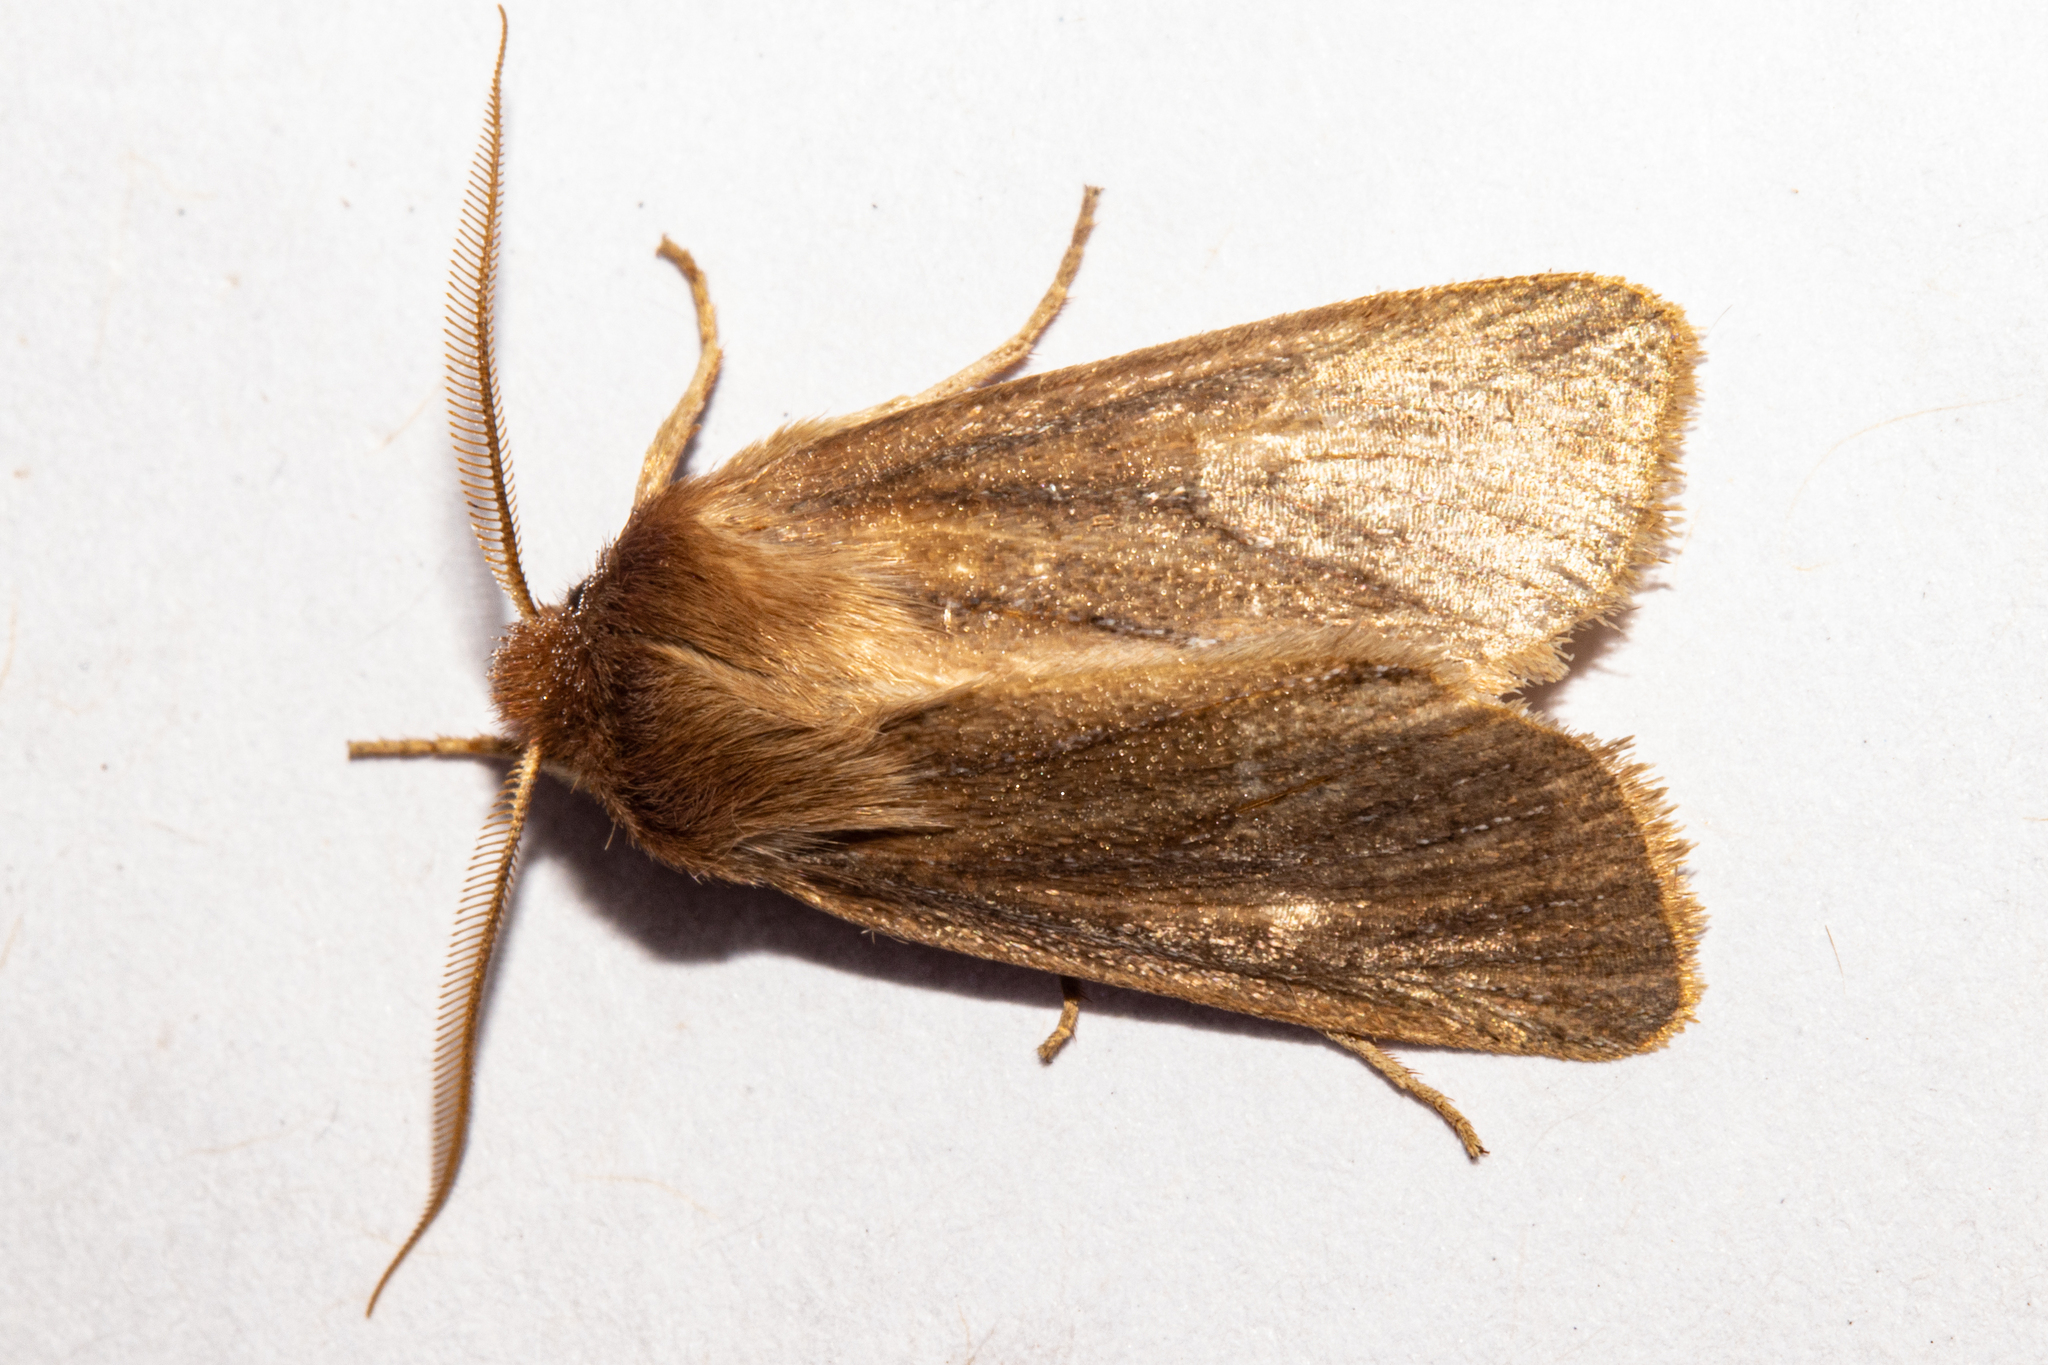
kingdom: Animalia
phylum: Arthropoda
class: Insecta
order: Lepidoptera
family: Noctuidae
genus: Ichneutica
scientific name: Ichneutica
